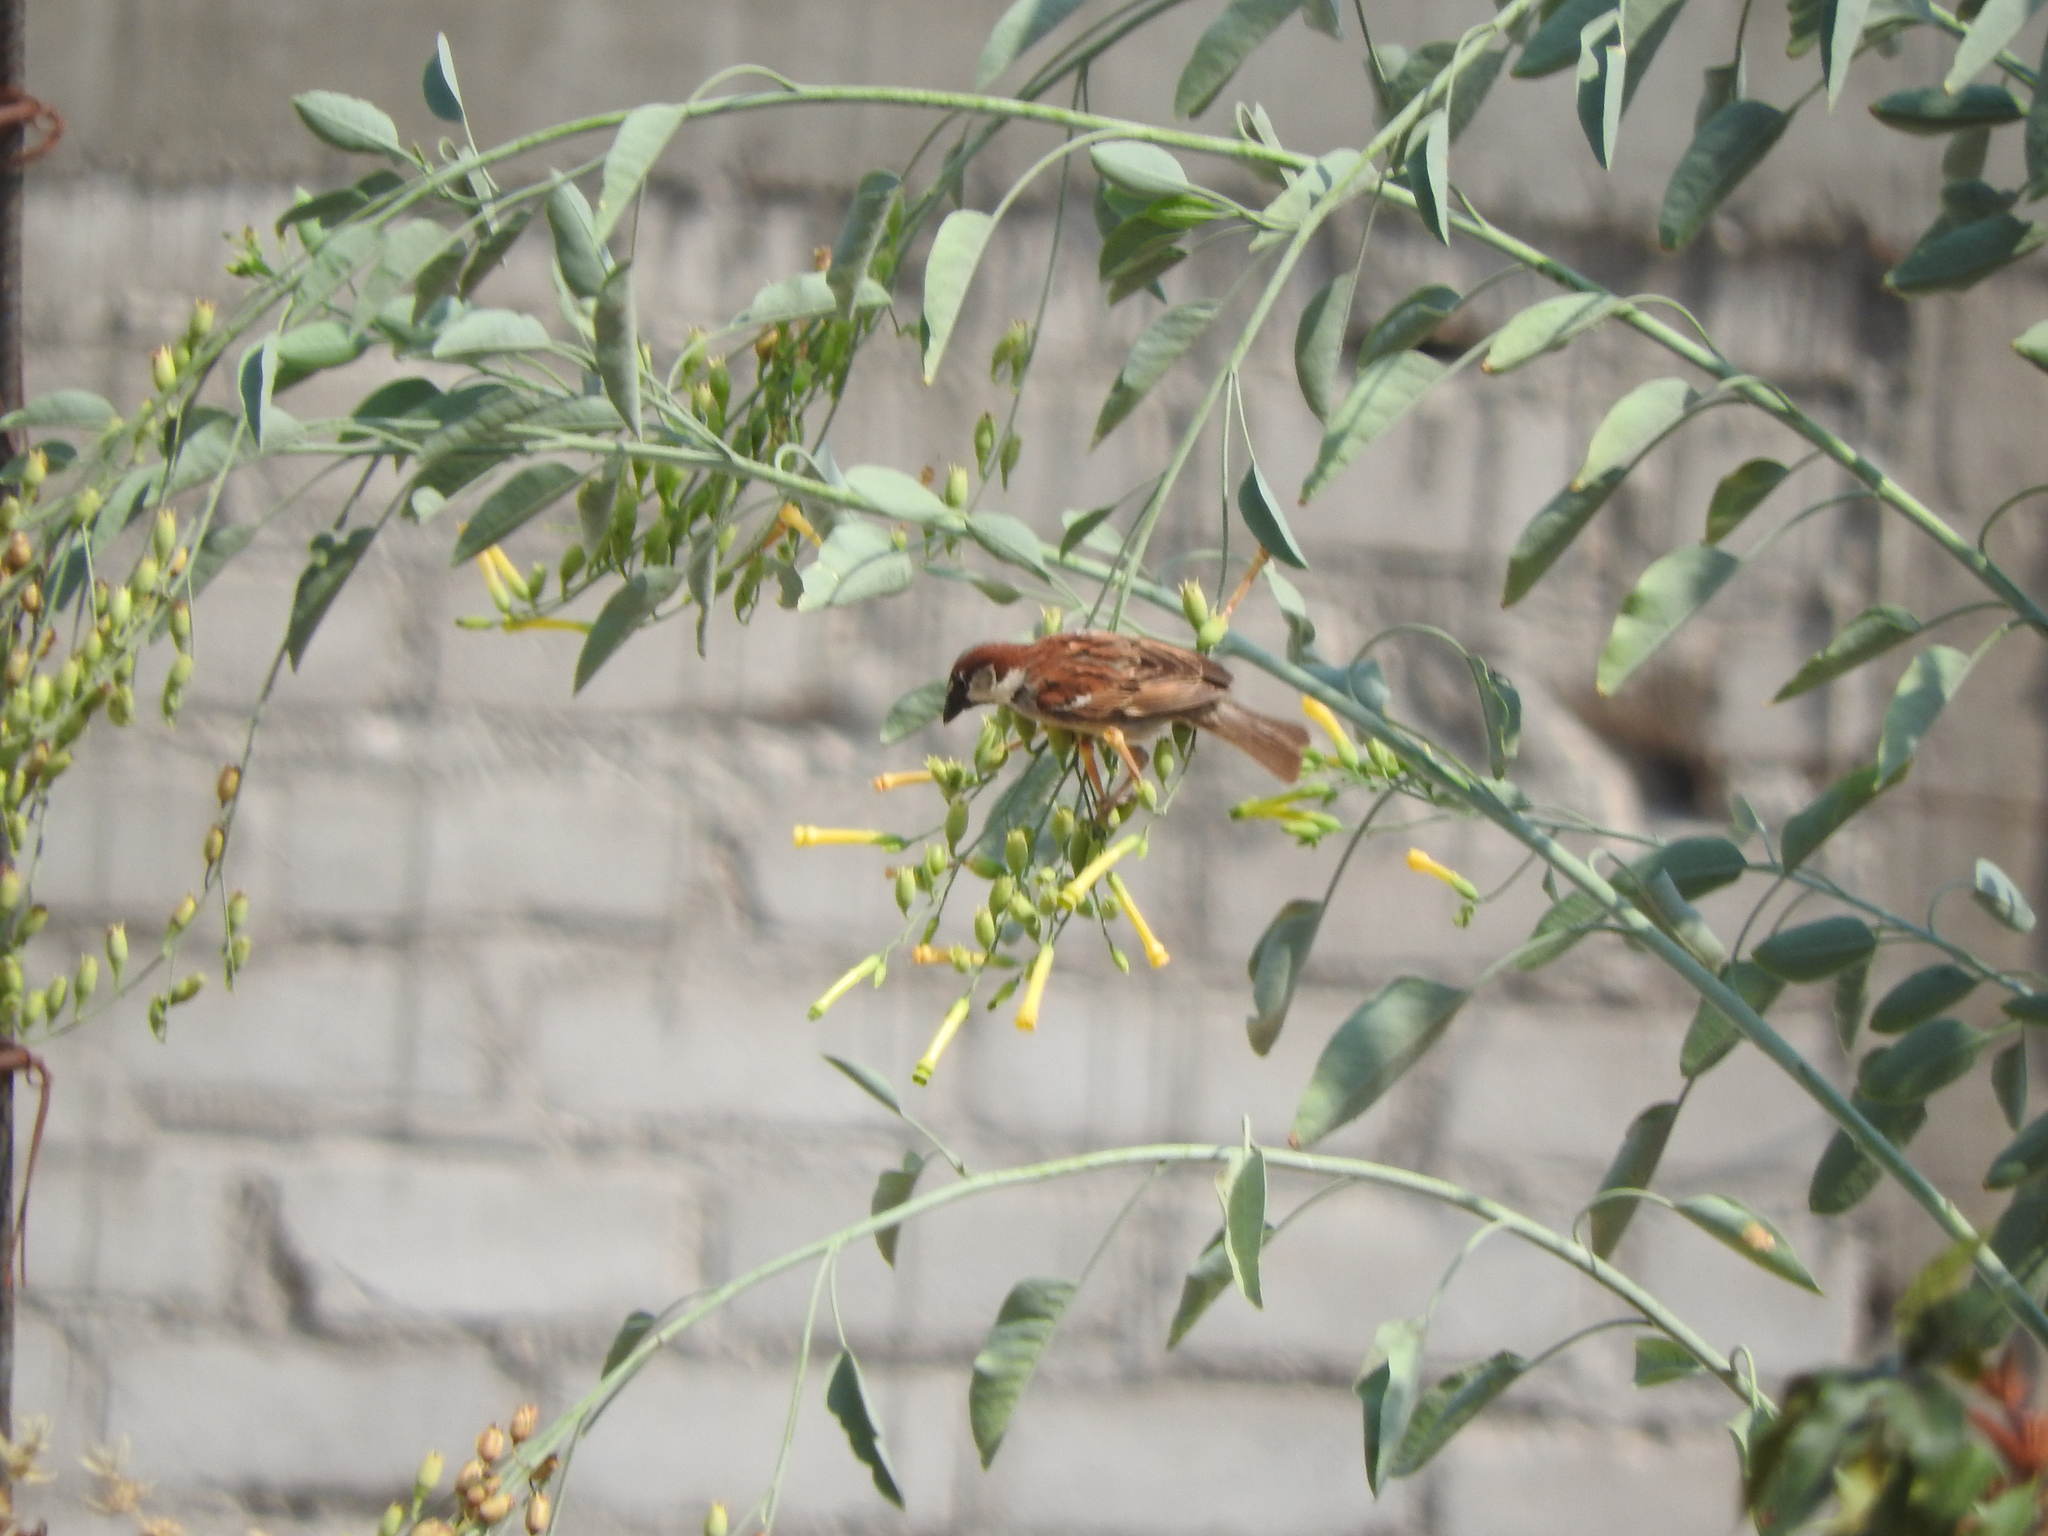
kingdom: Animalia
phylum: Chordata
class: Aves
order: Passeriformes
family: Passeridae
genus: Passer
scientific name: Passer domesticus
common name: House sparrow
